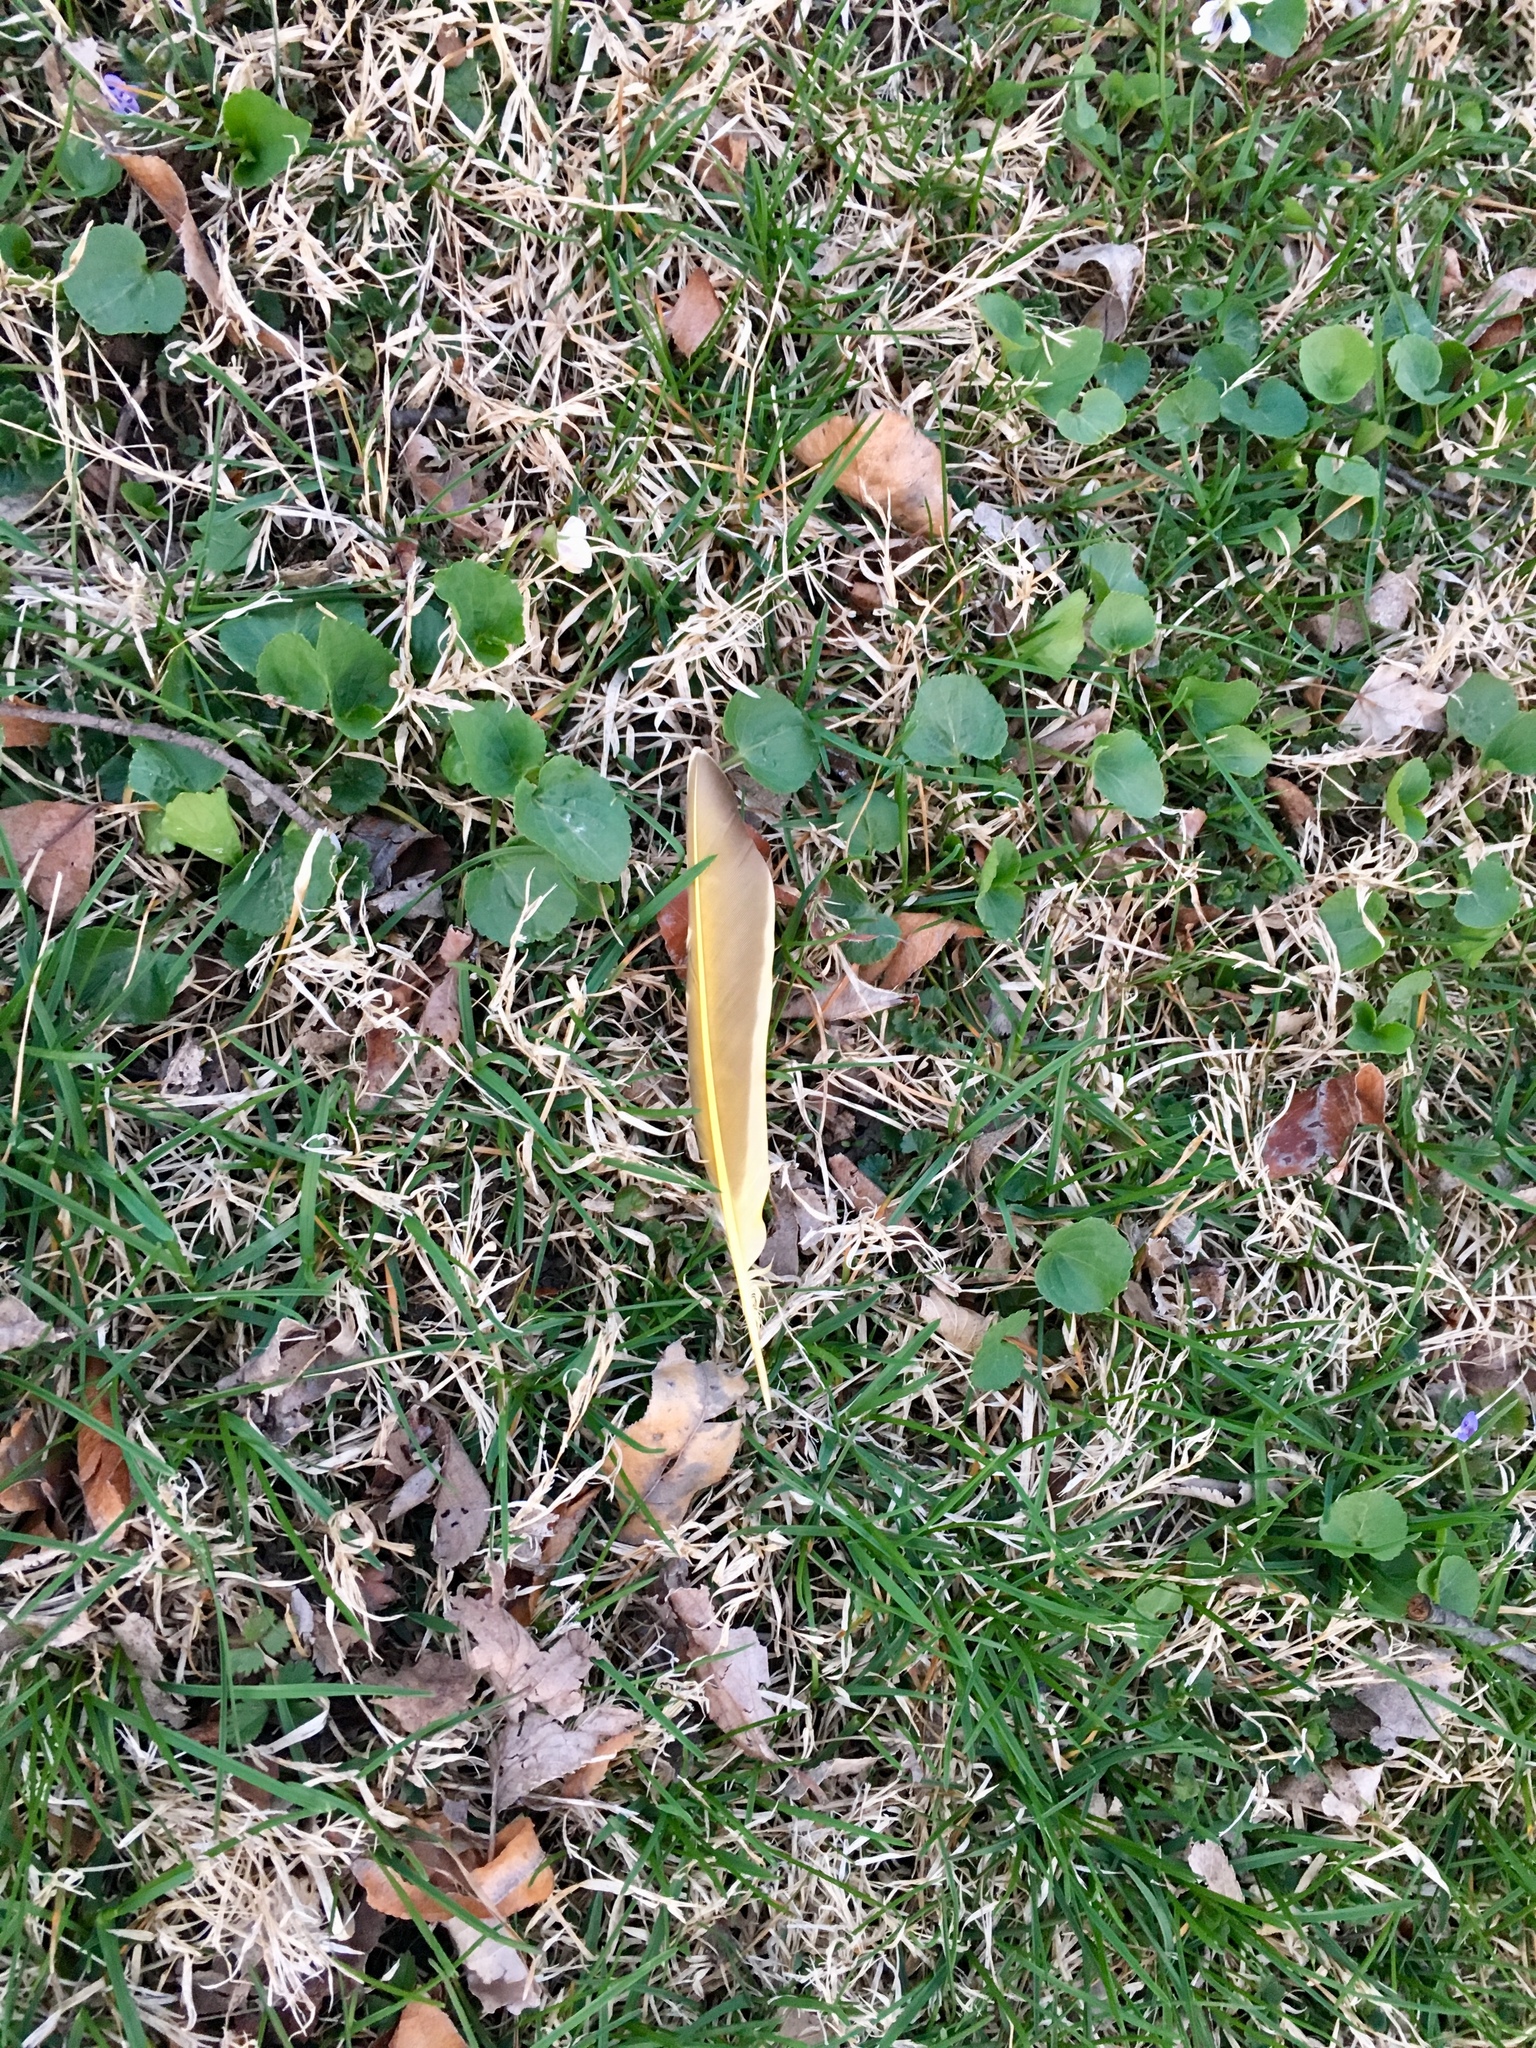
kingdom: Animalia
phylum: Chordata
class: Aves
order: Piciformes
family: Picidae
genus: Colaptes
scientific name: Colaptes auratus
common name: Northern flicker
